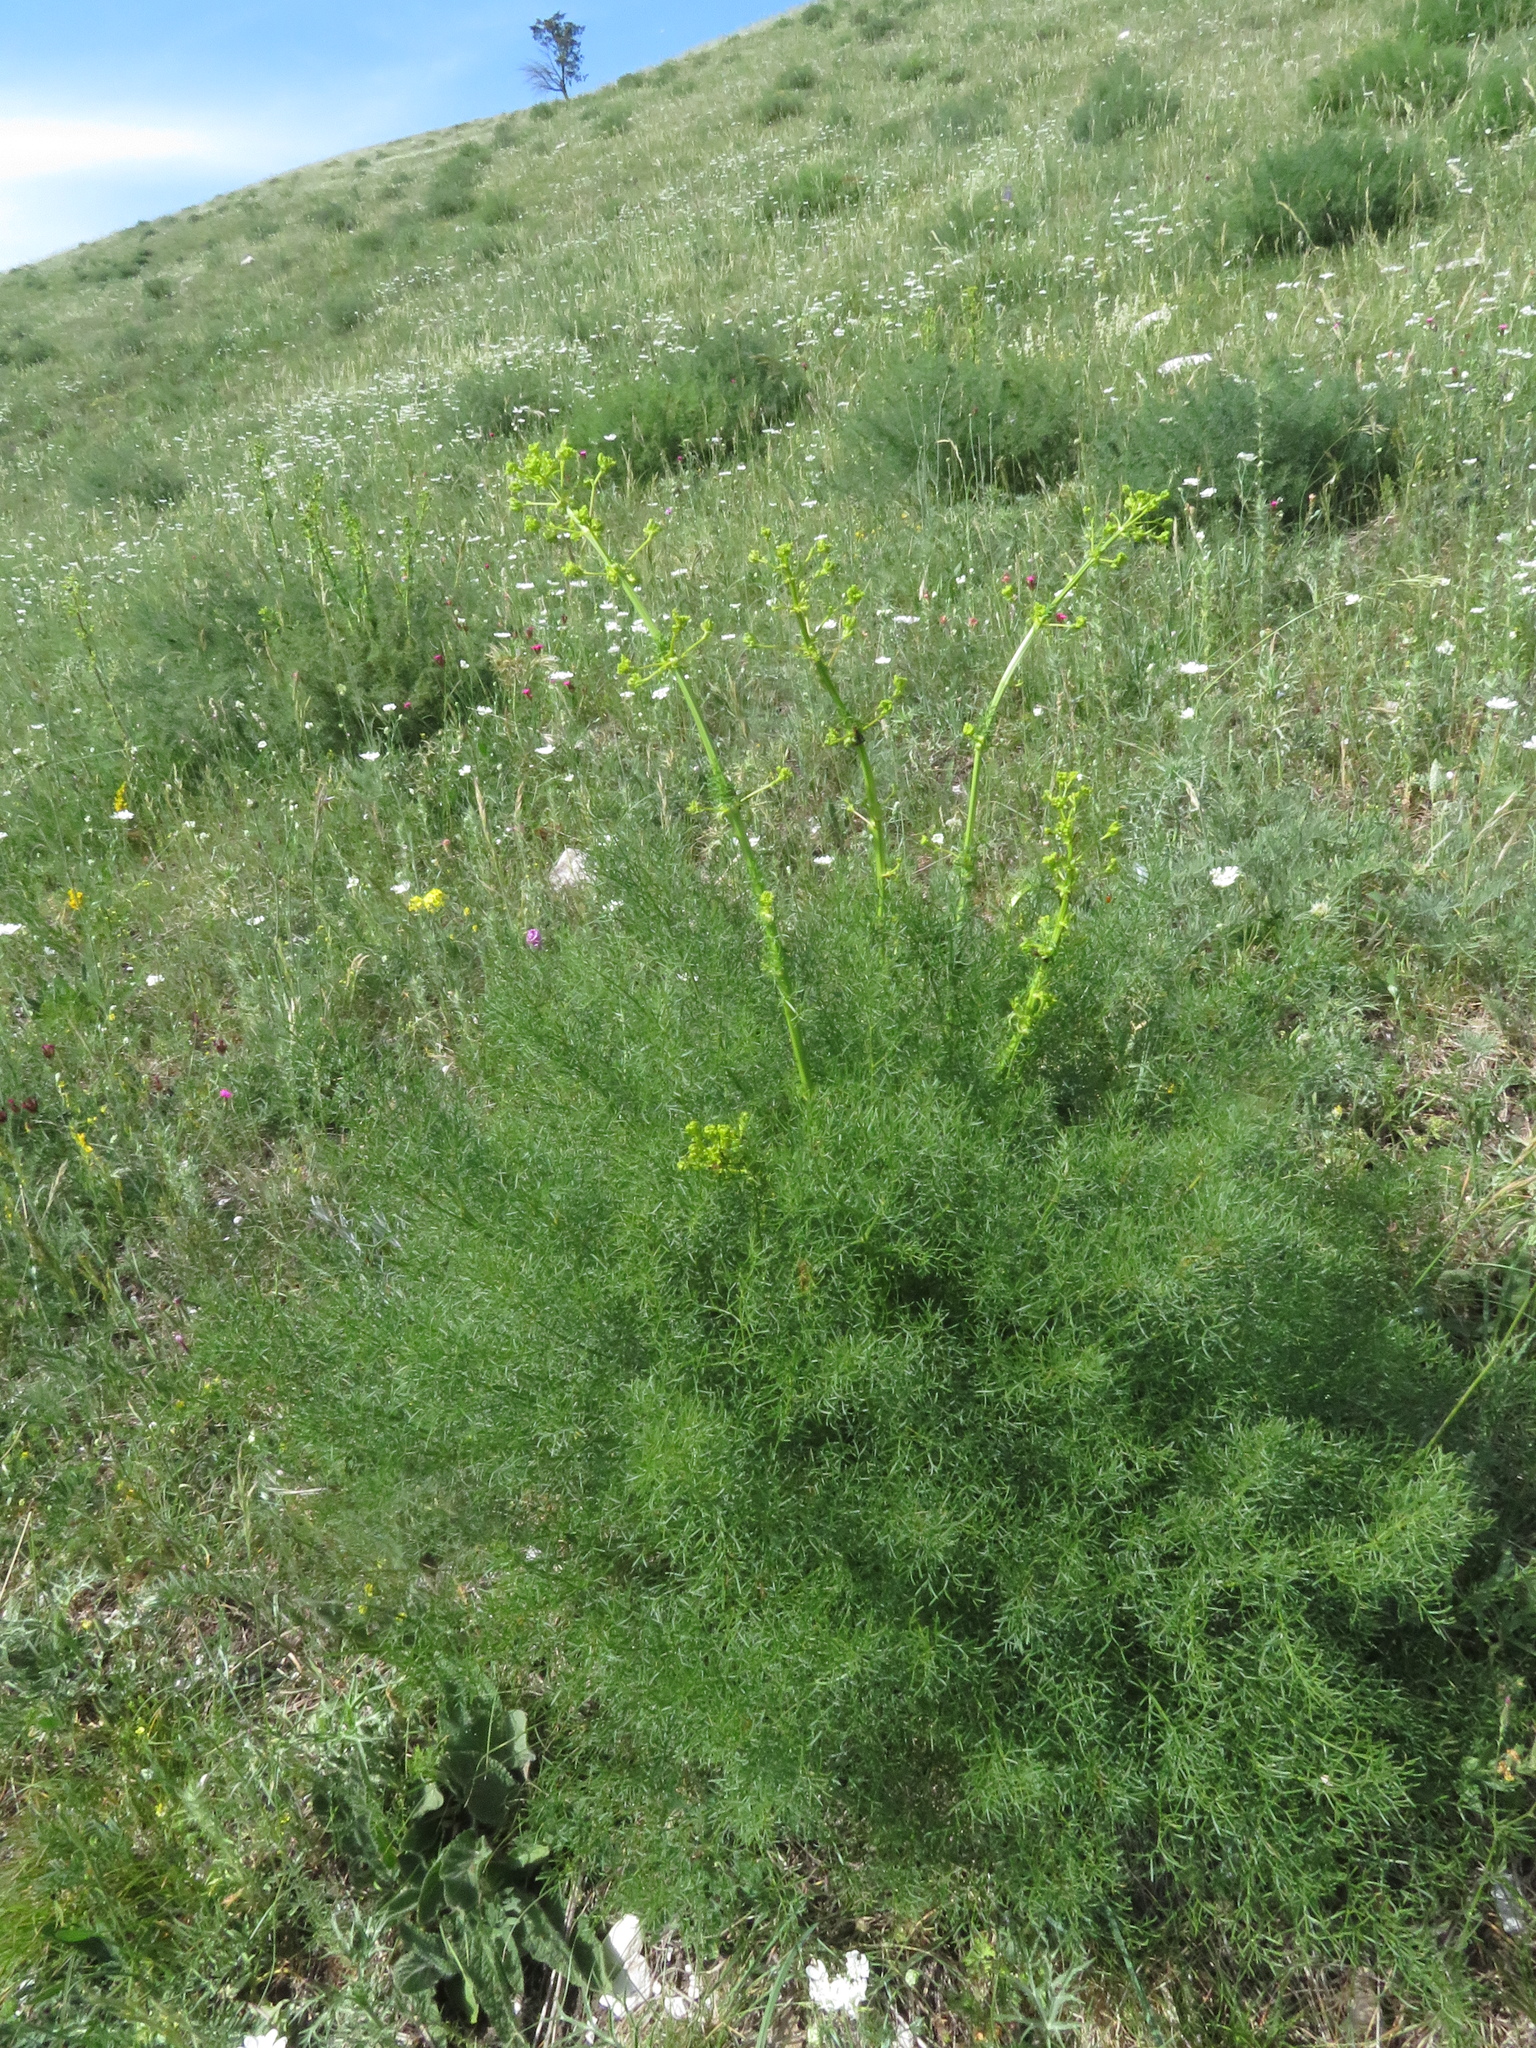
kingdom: Plantae
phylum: Tracheophyta
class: Magnoliopsida
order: Apiales
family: Apiaceae
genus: Ferulago
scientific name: Ferulago galbanifera
